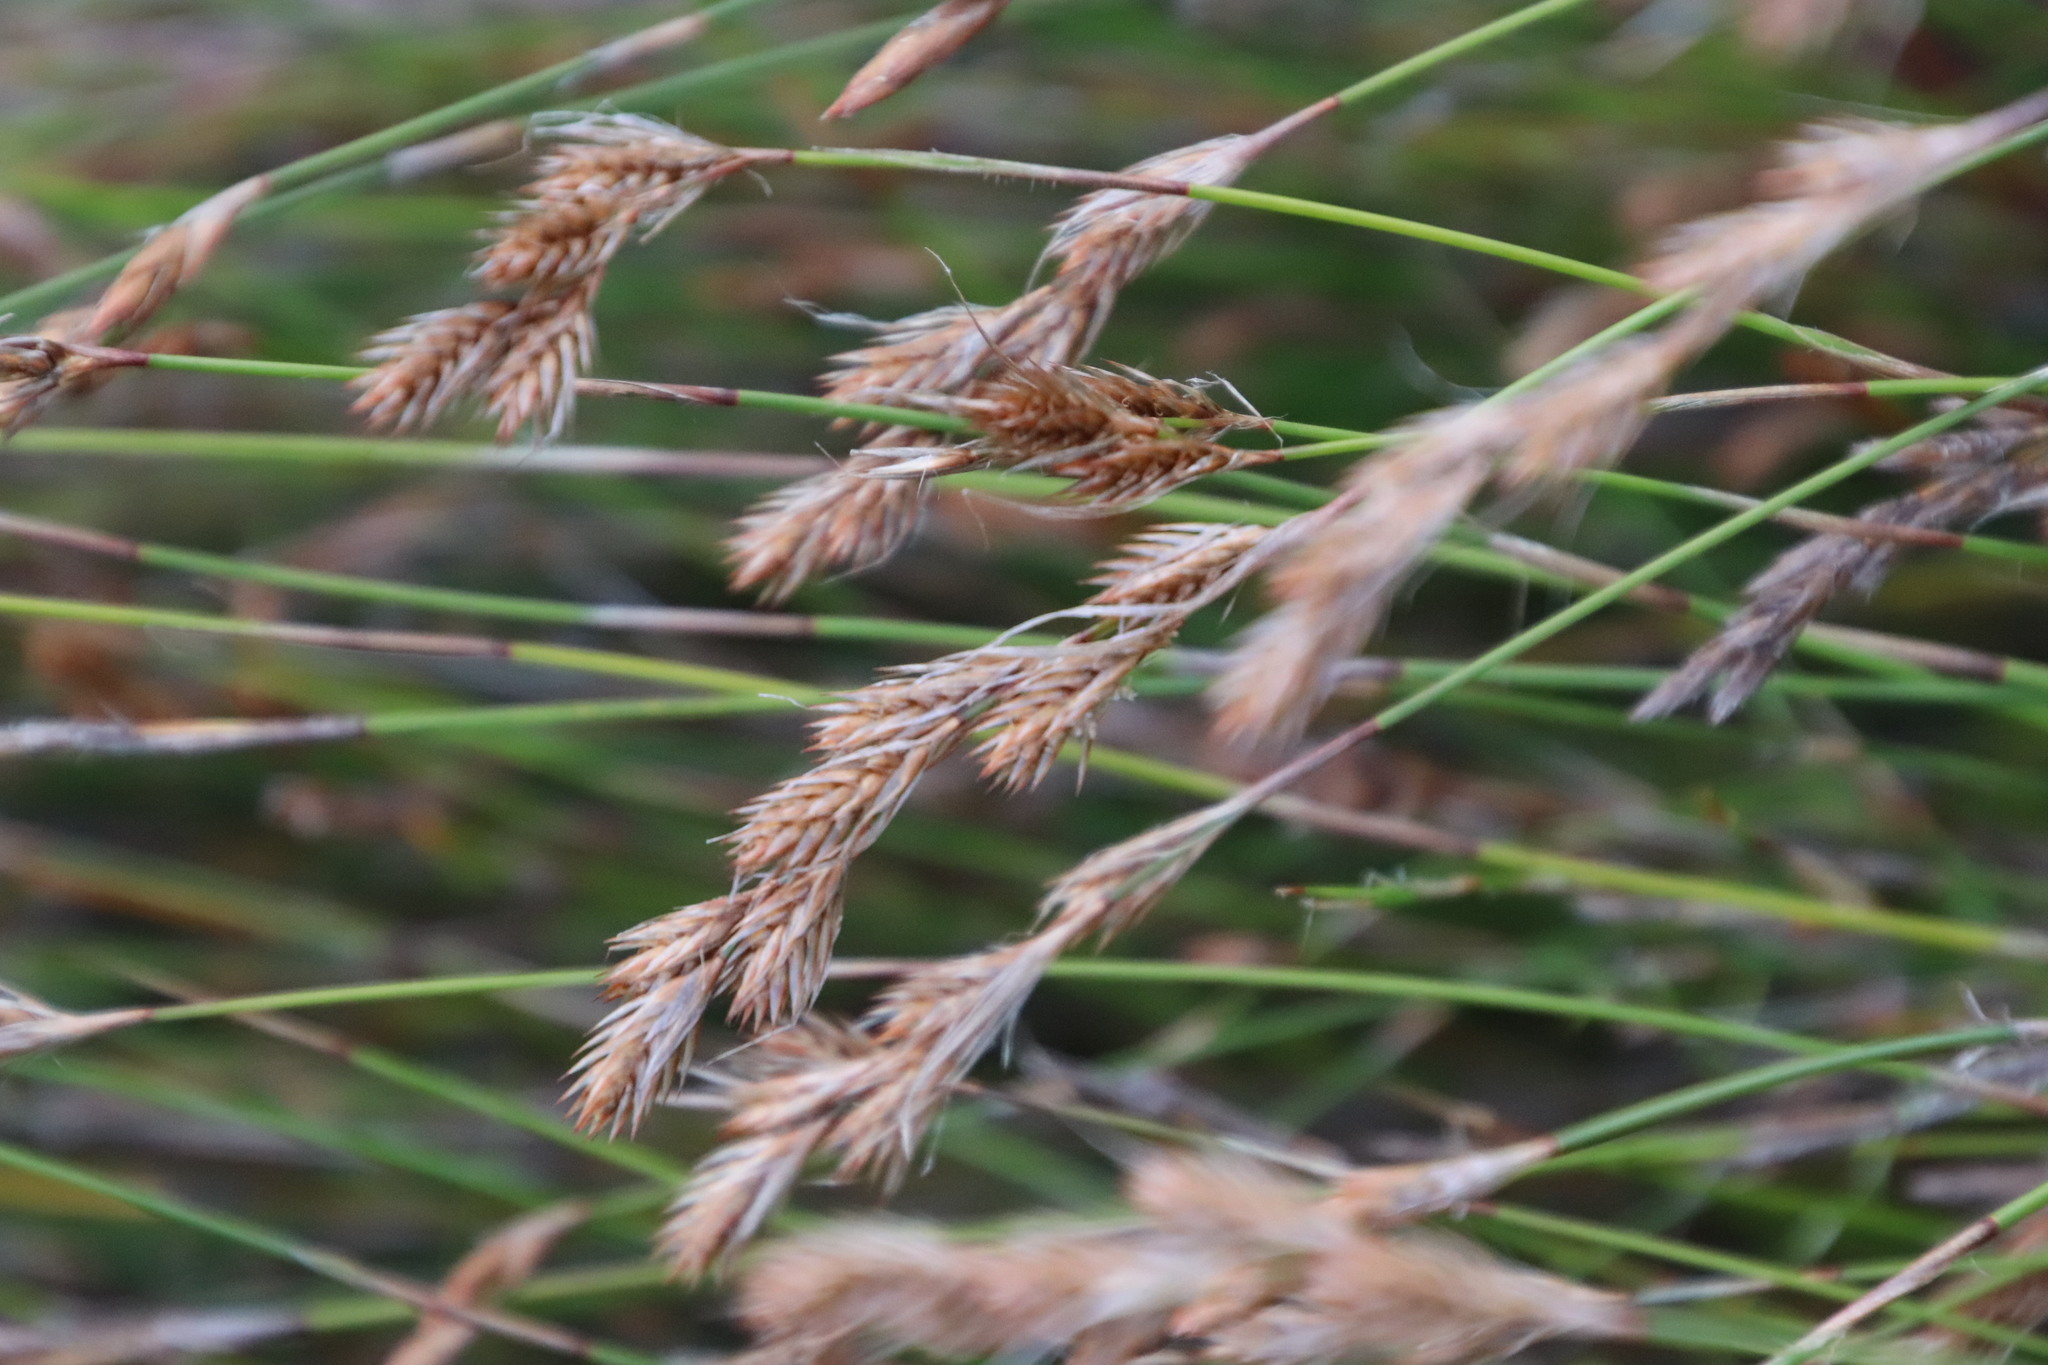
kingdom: Plantae
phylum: Tracheophyta
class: Liliopsida
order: Poales
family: Restionaceae
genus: Thamnochortus
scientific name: Thamnochortus lucens
